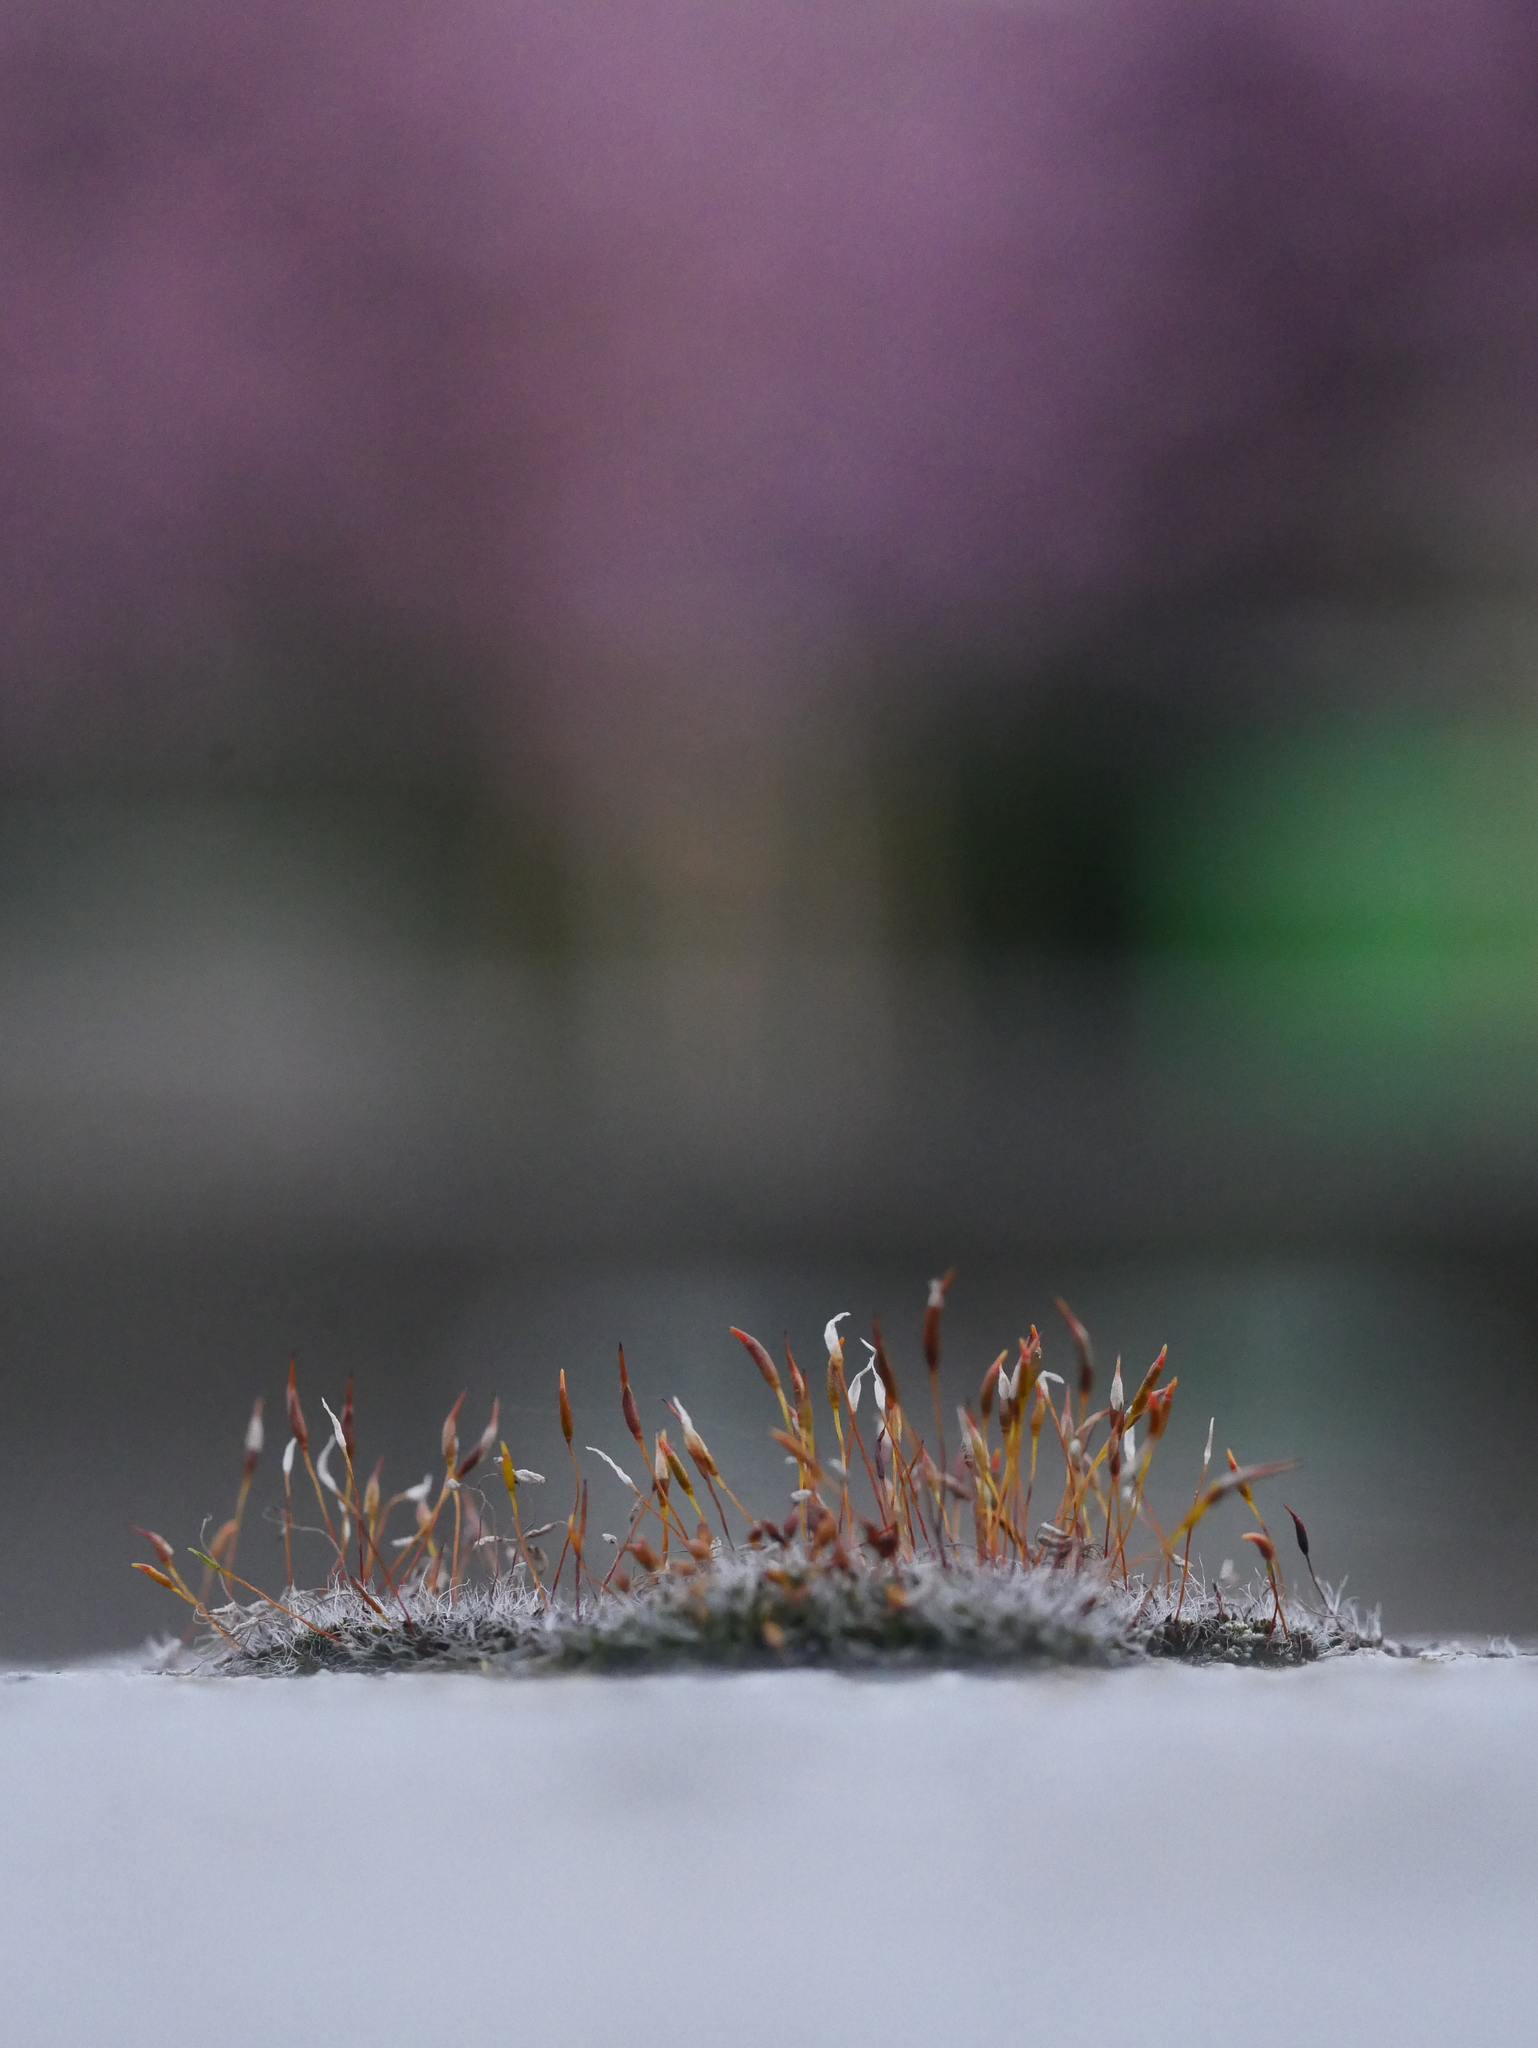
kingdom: Plantae
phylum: Bryophyta
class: Bryopsida
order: Pottiales
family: Pottiaceae
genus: Tortula
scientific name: Tortula muralis
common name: Wall screw-moss
